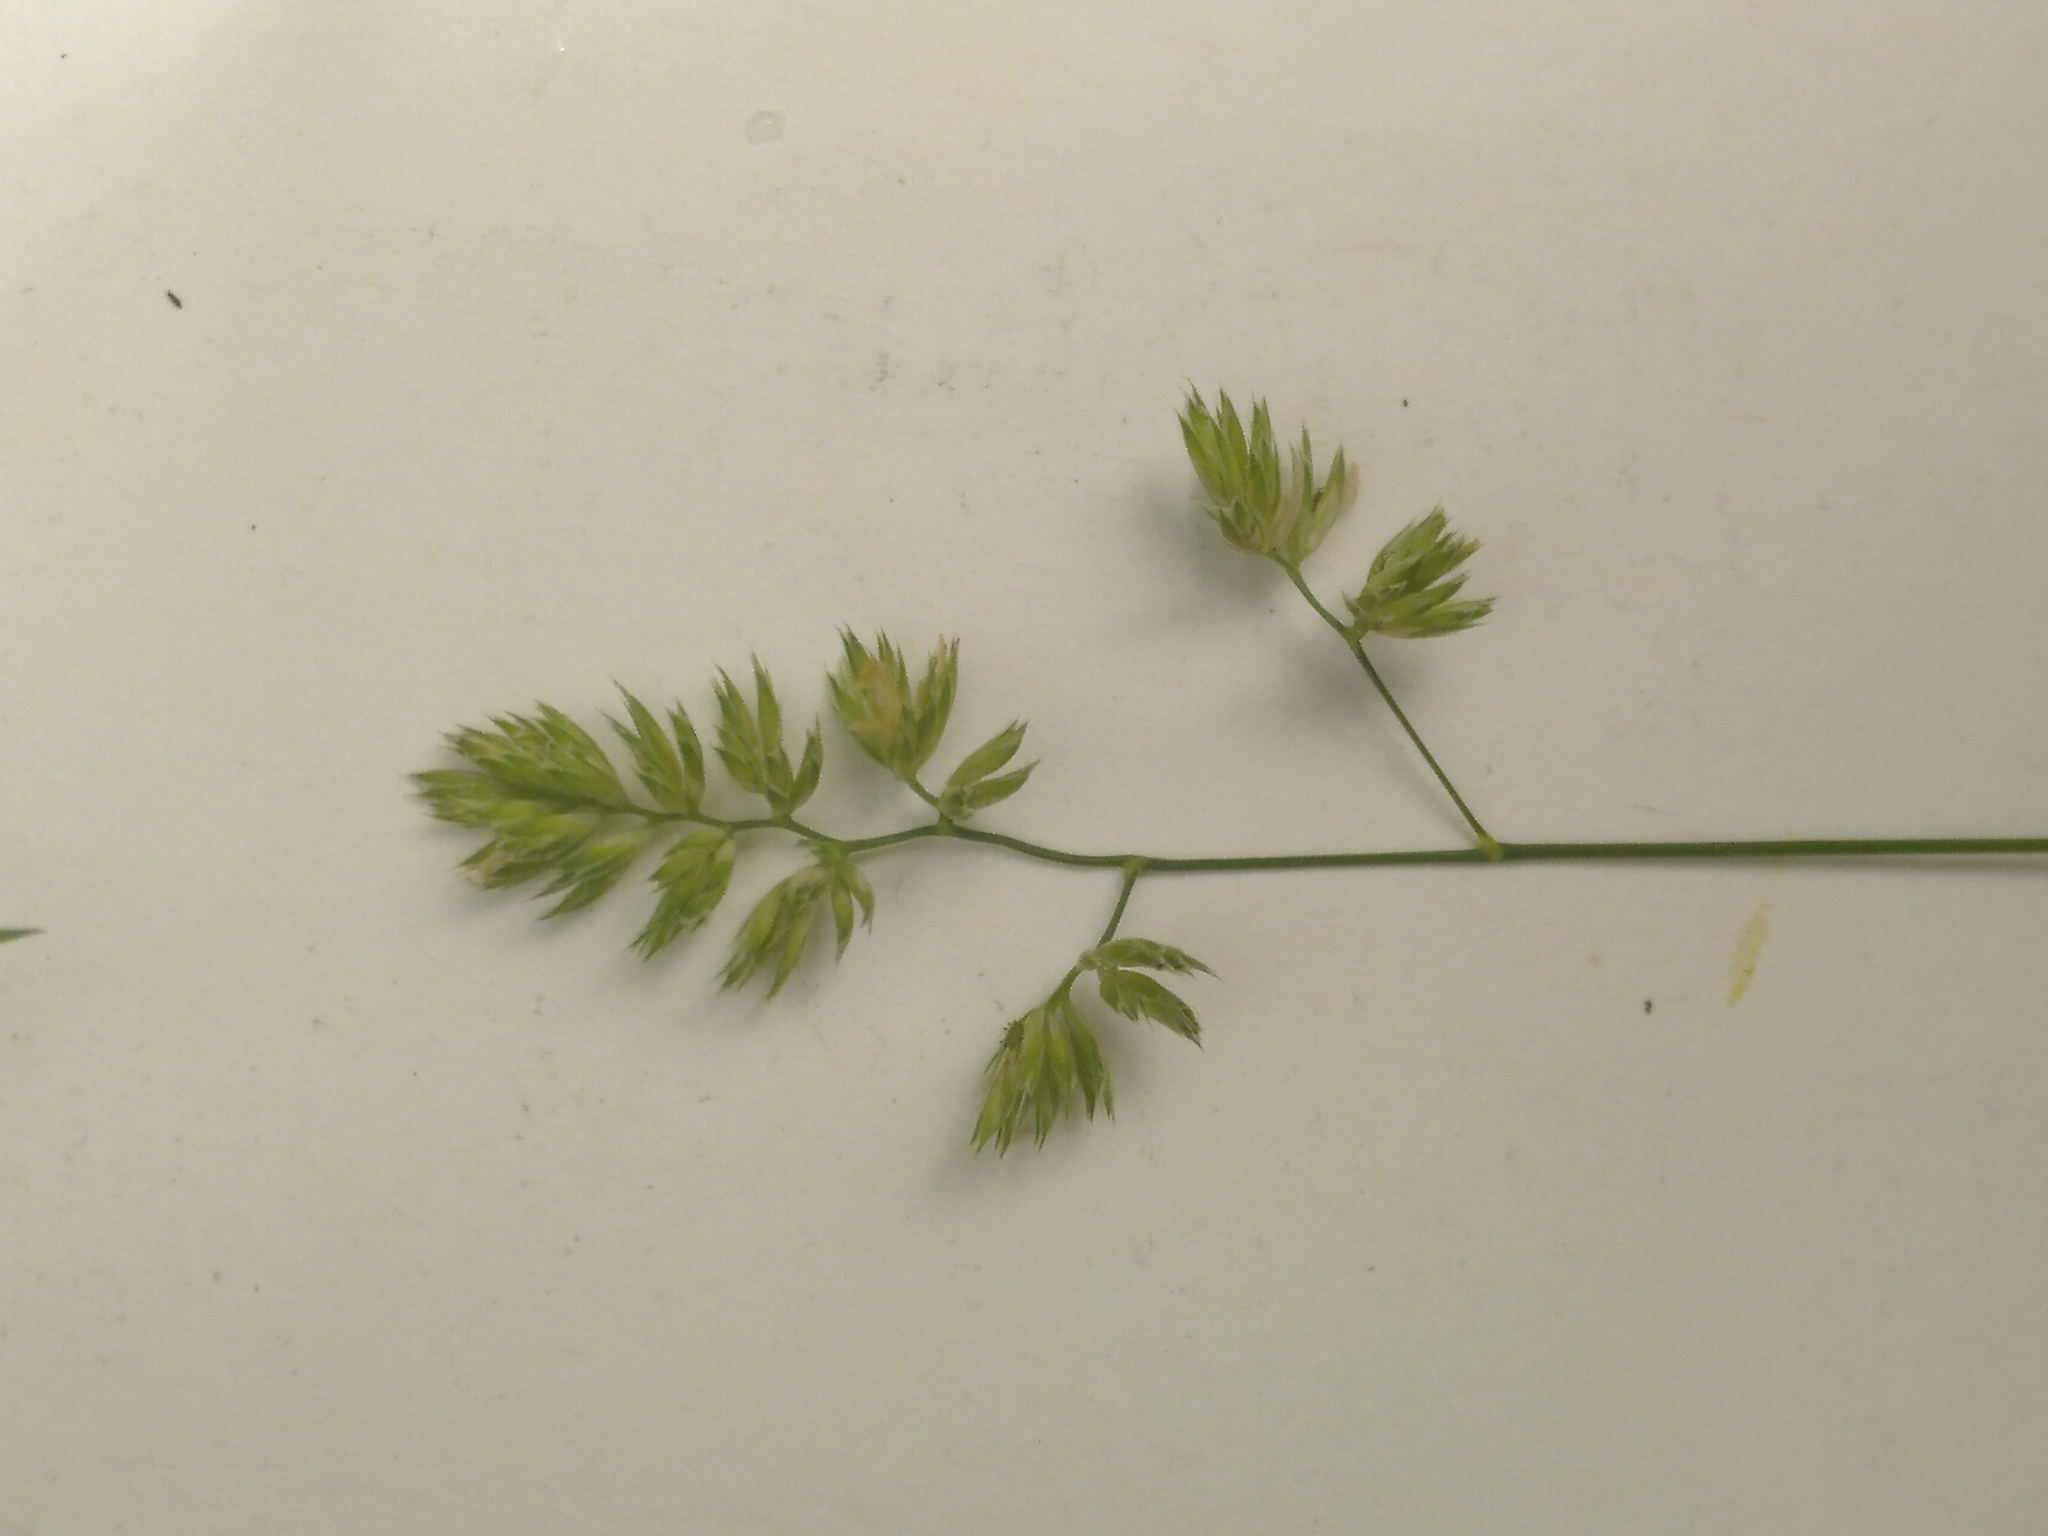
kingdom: Plantae
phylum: Tracheophyta
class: Liliopsida
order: Poales
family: Poaceae
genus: Dactylis
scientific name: Dactylis glomerata
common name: Orchardgrass
